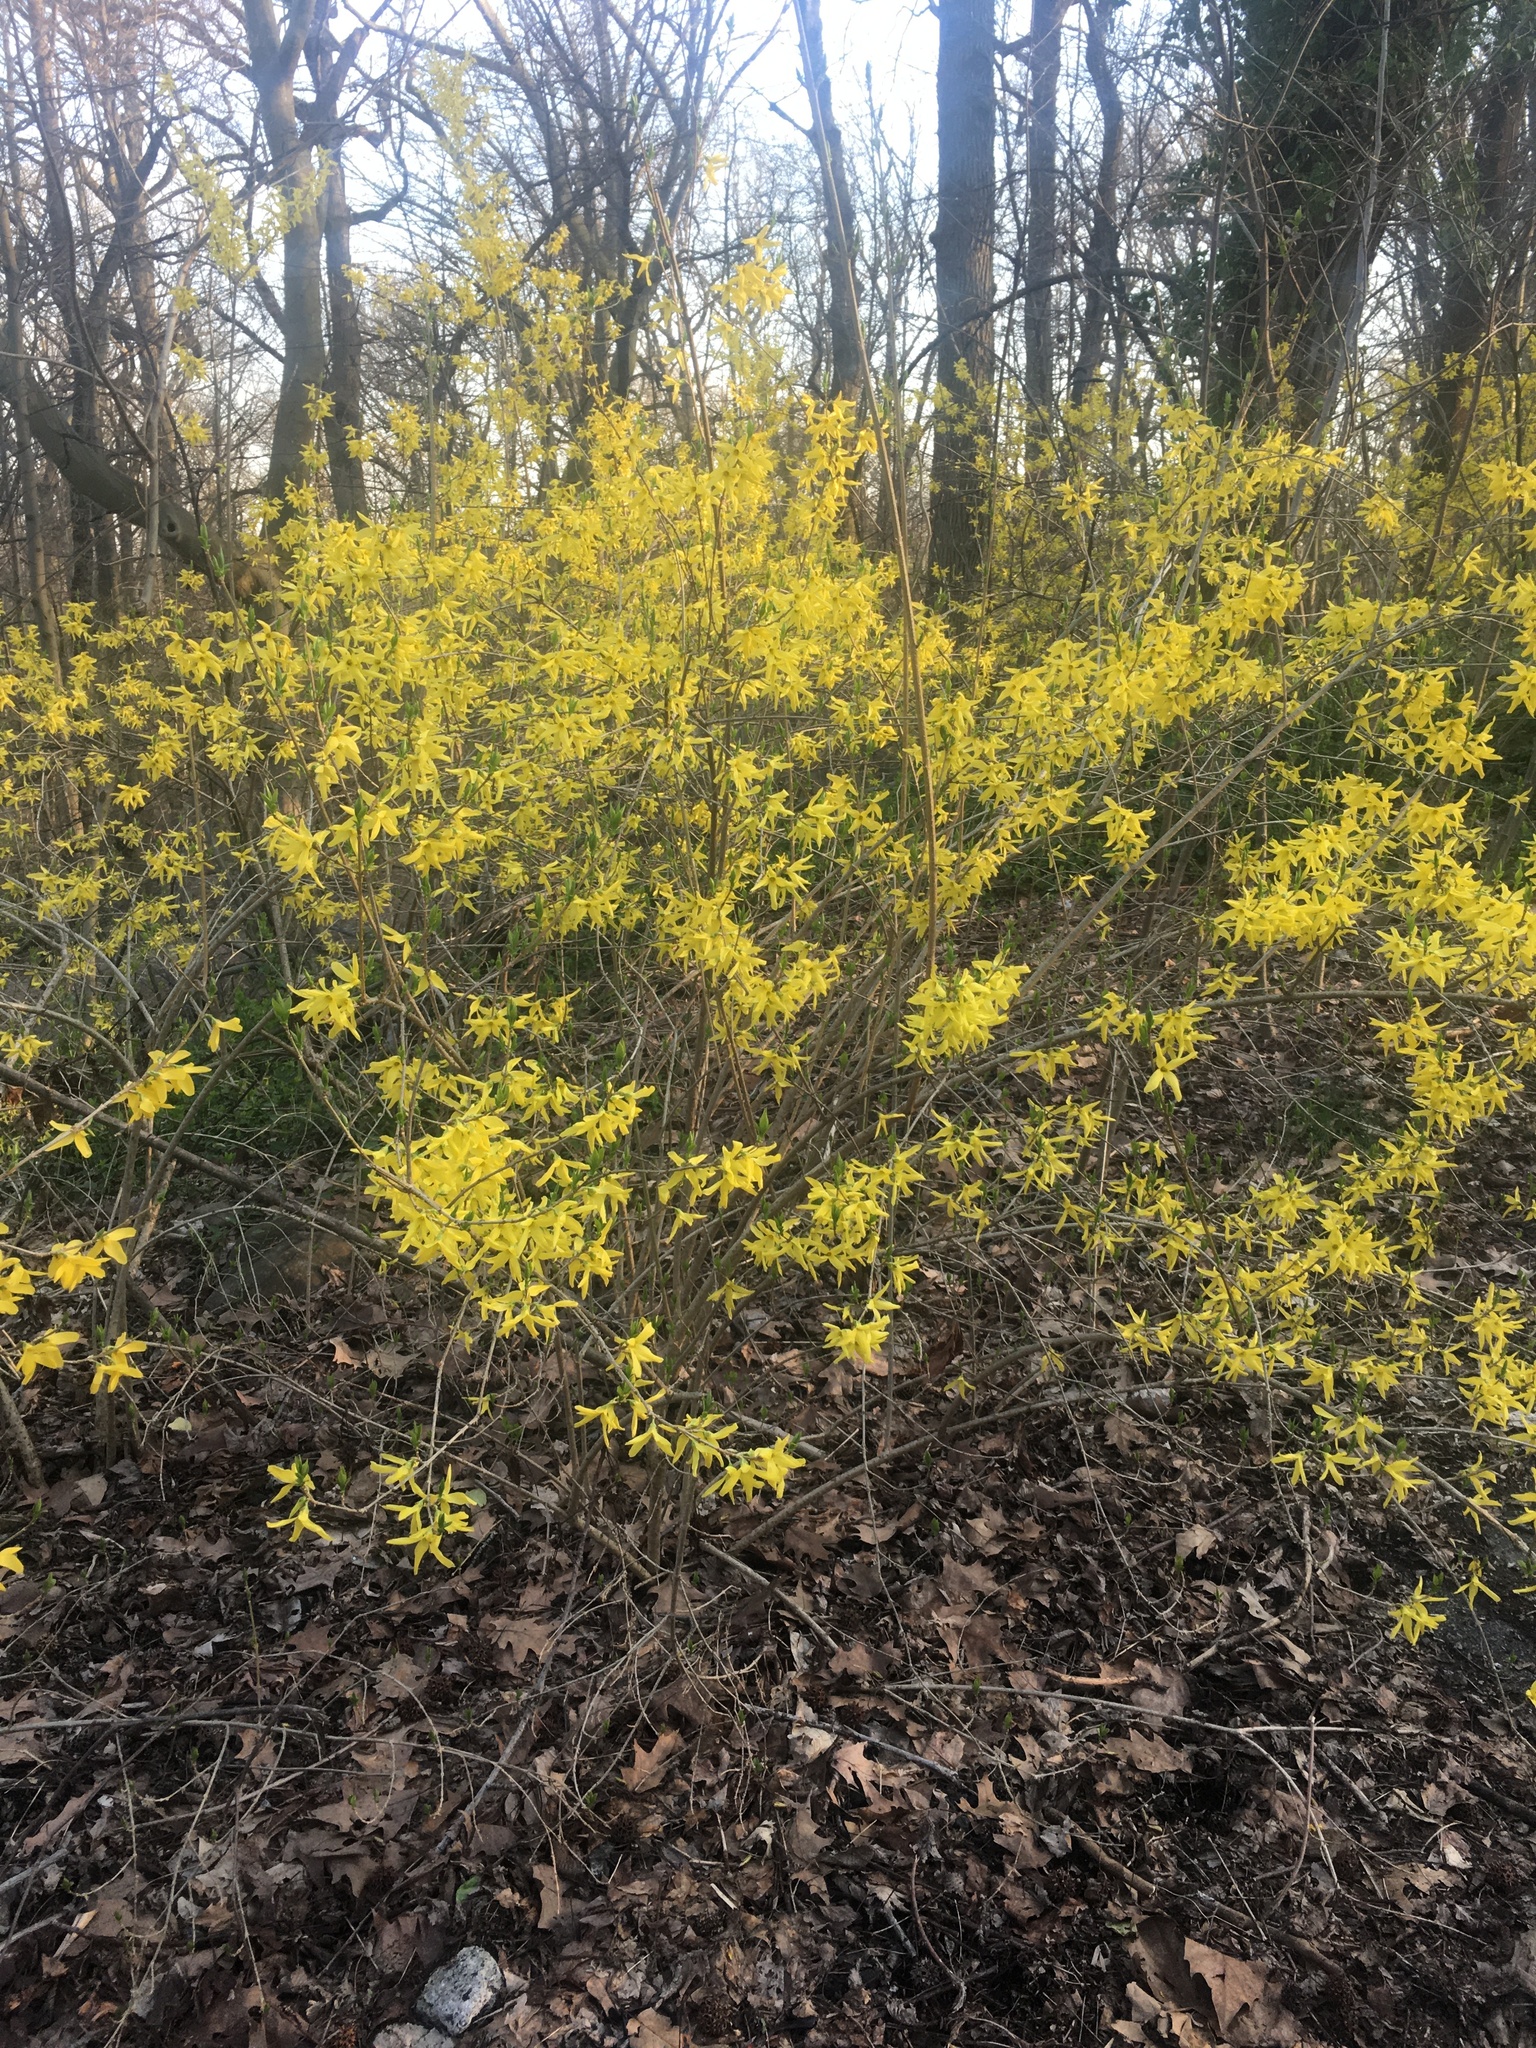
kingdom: Plantae
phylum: Tracheophyta
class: Magnoliopsida
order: Lamiales
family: Oleaceae
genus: Forsythia
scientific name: Forsythia intermedia
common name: Forsythia
